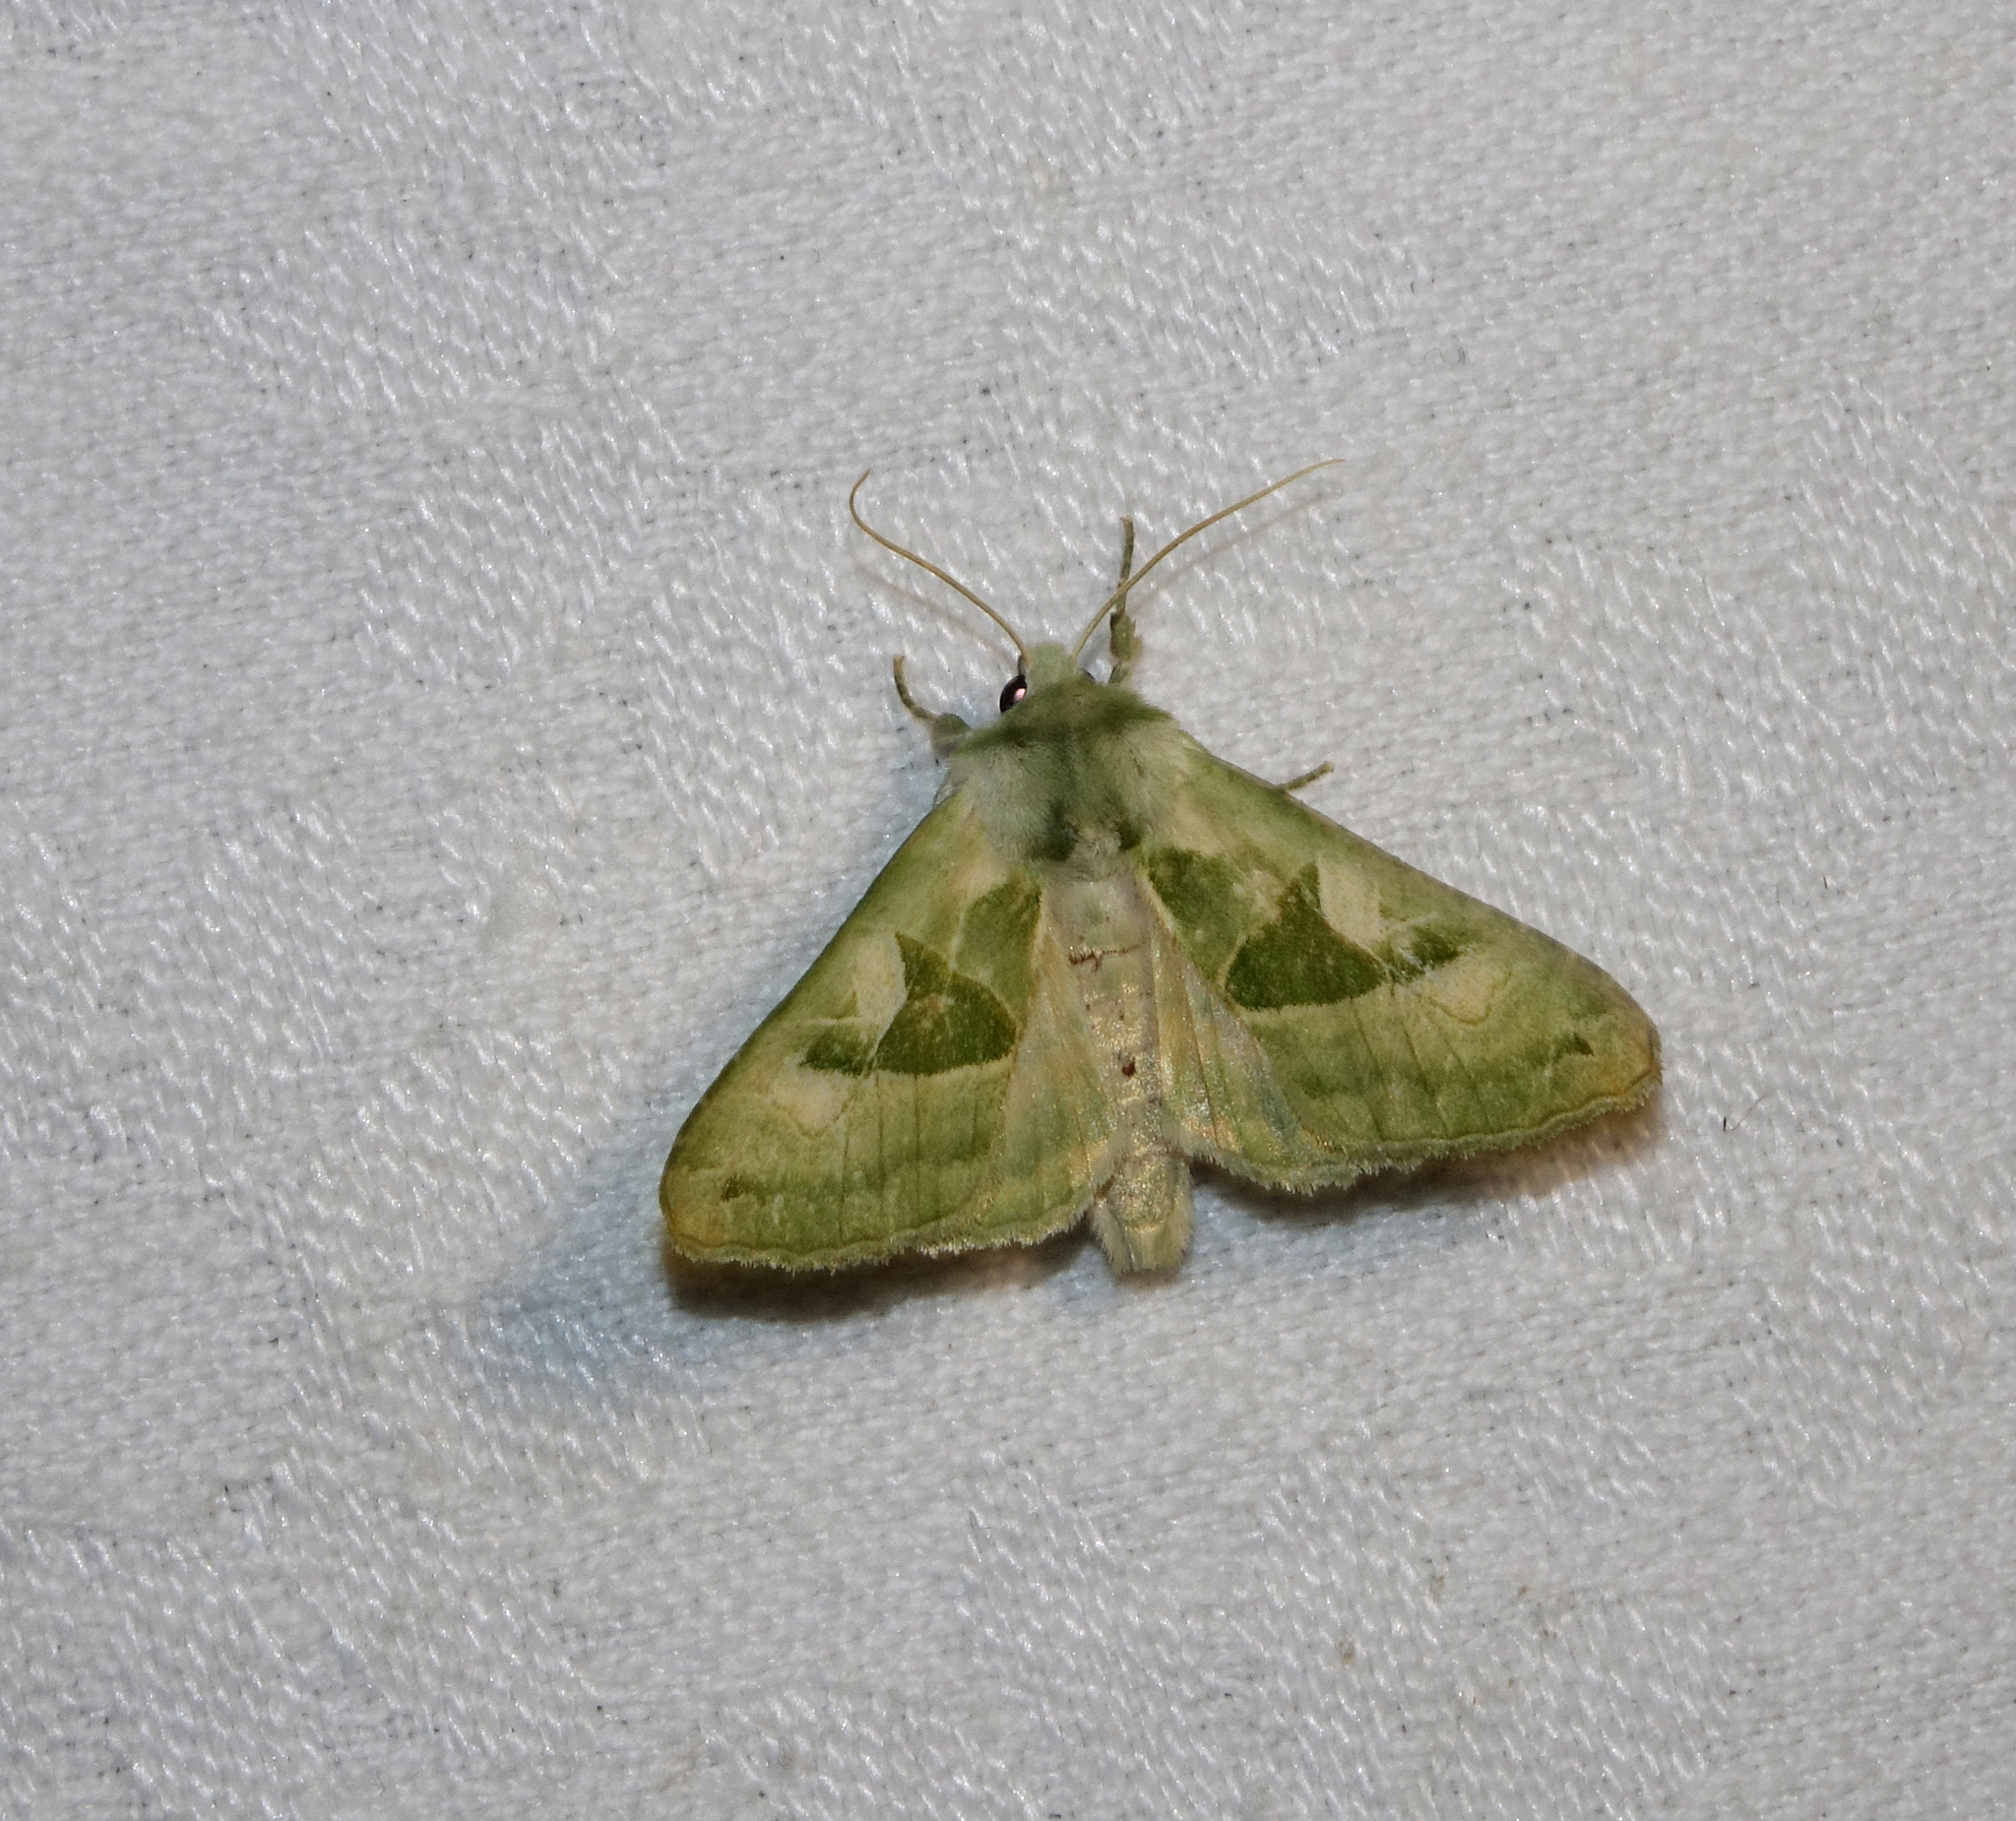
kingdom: Animalia
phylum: Arthropoda
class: Insecta
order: Lepidoptera
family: Noctuidae
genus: Phlogophora
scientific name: Phlogophora scita
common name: Green angle shades
